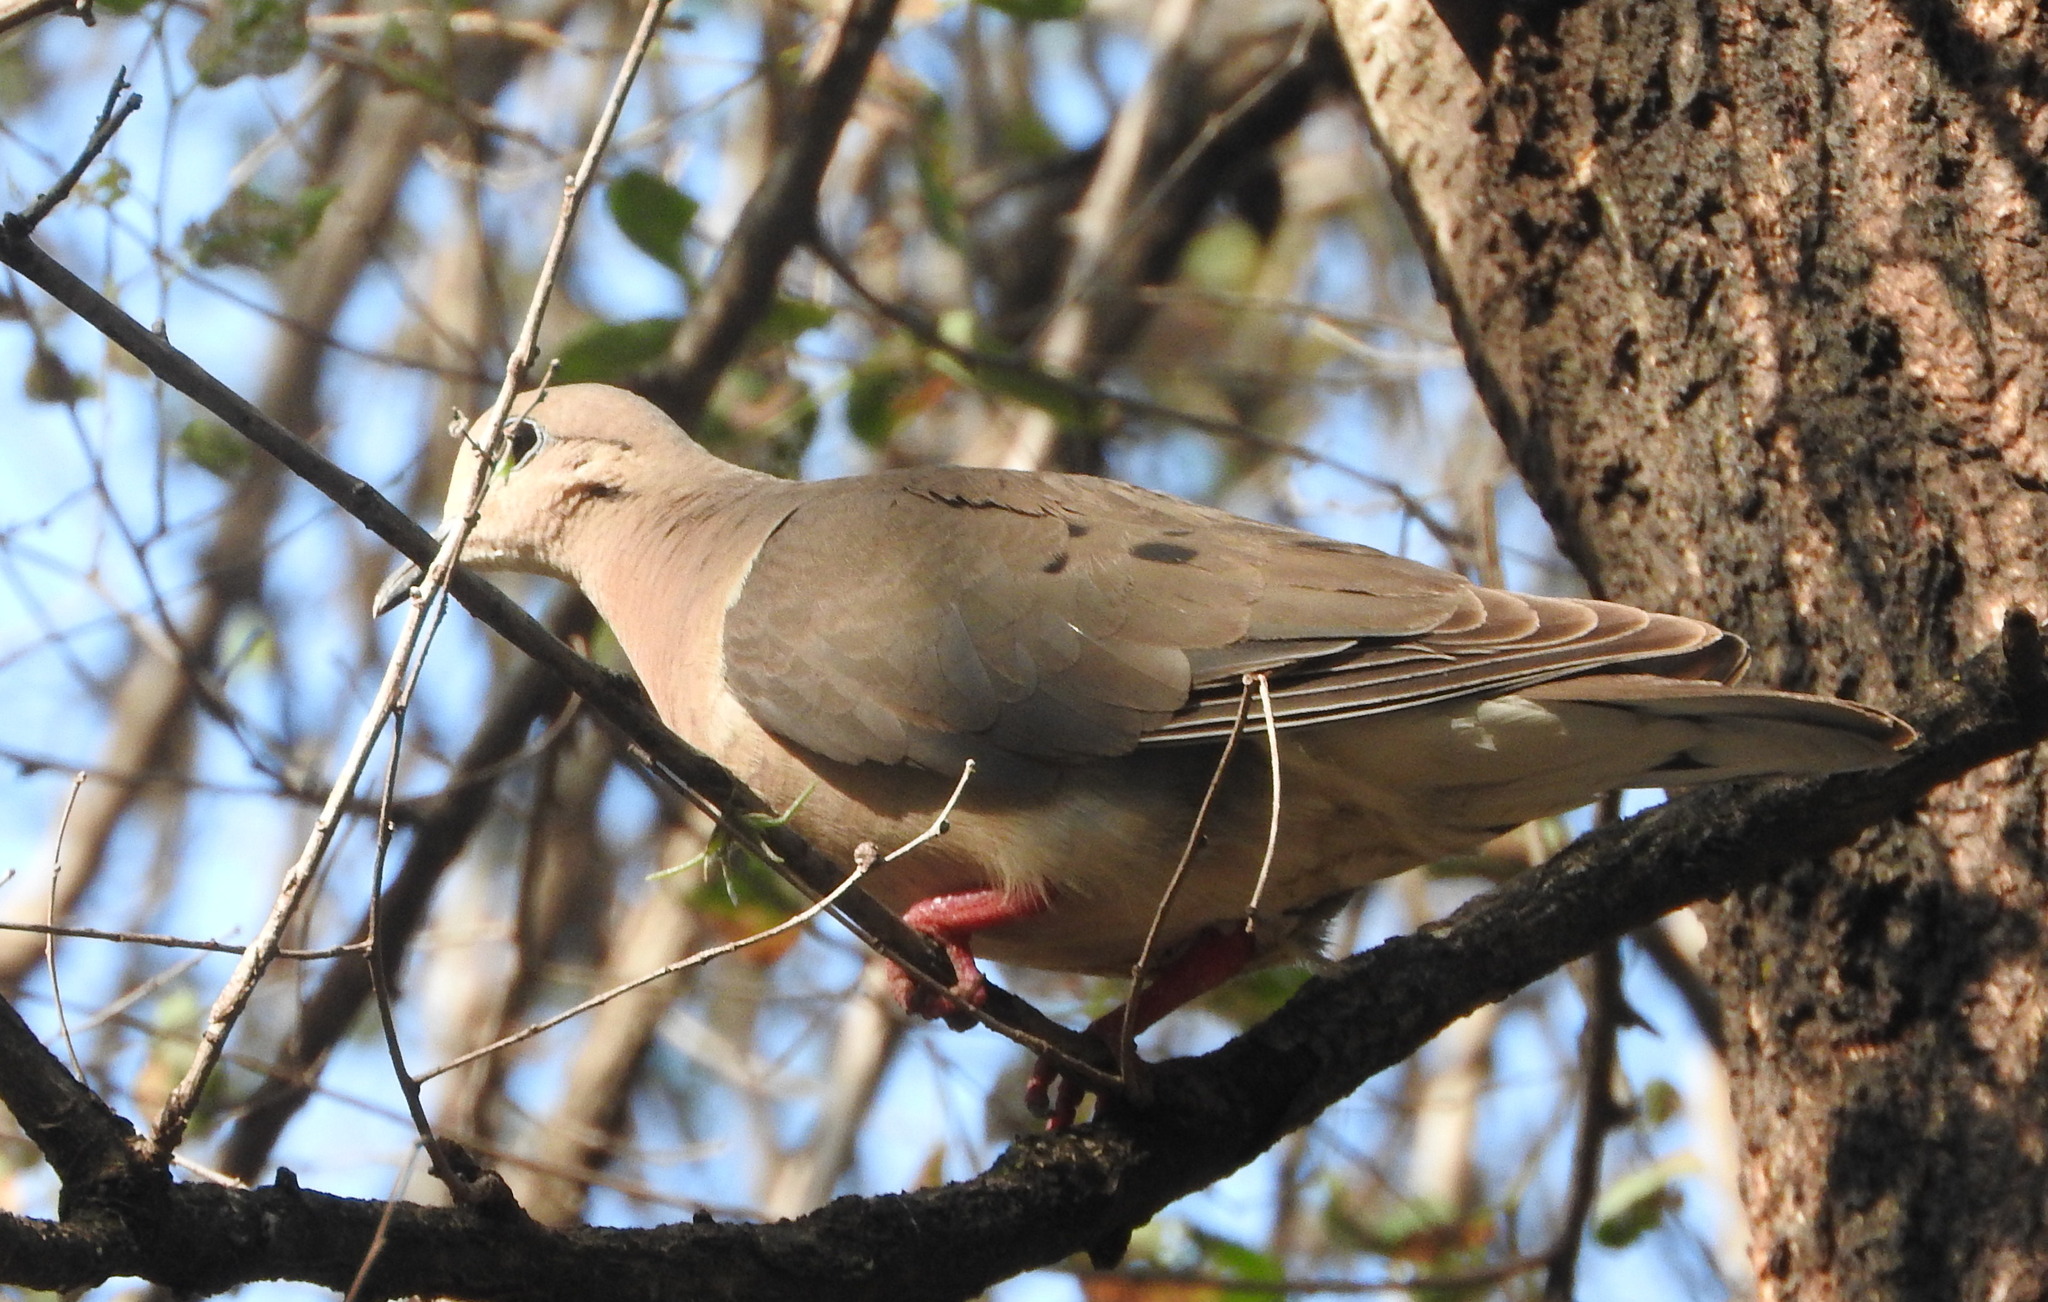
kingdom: Animalia
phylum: Chordata
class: Aves
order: Columbiformes
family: Columbidae
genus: Zenaida
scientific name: Zenaida auriculata
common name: Eared dove
